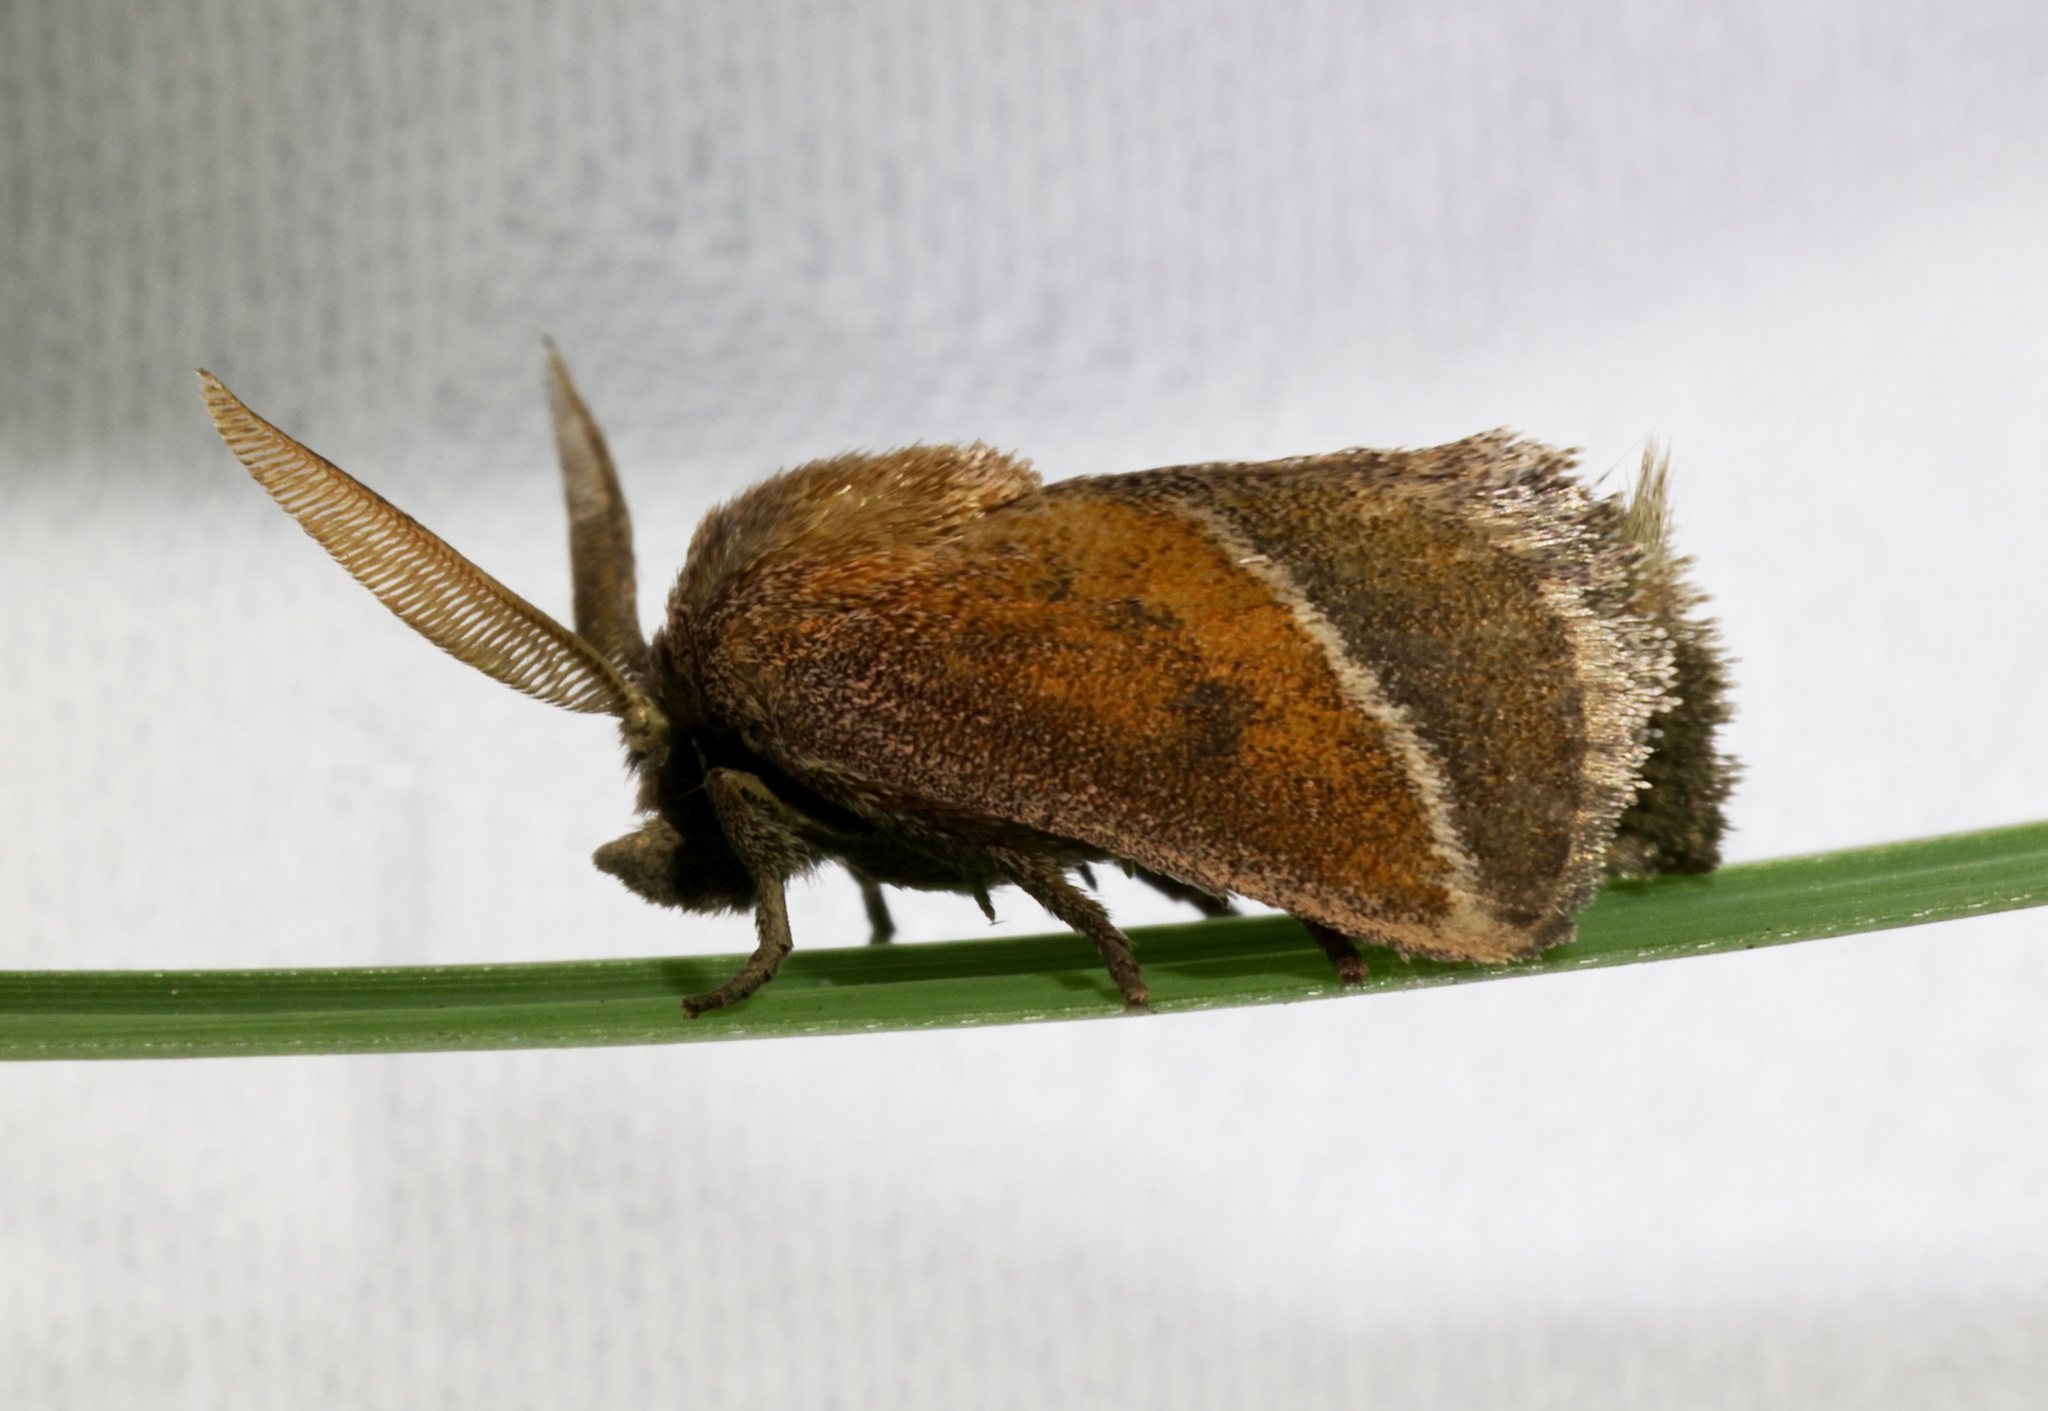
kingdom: Animalia
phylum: Arthropoda
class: Insecta
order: Lepidoptera
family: Limacodidae
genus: Oxyplax
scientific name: Oxyplax pallivitta
